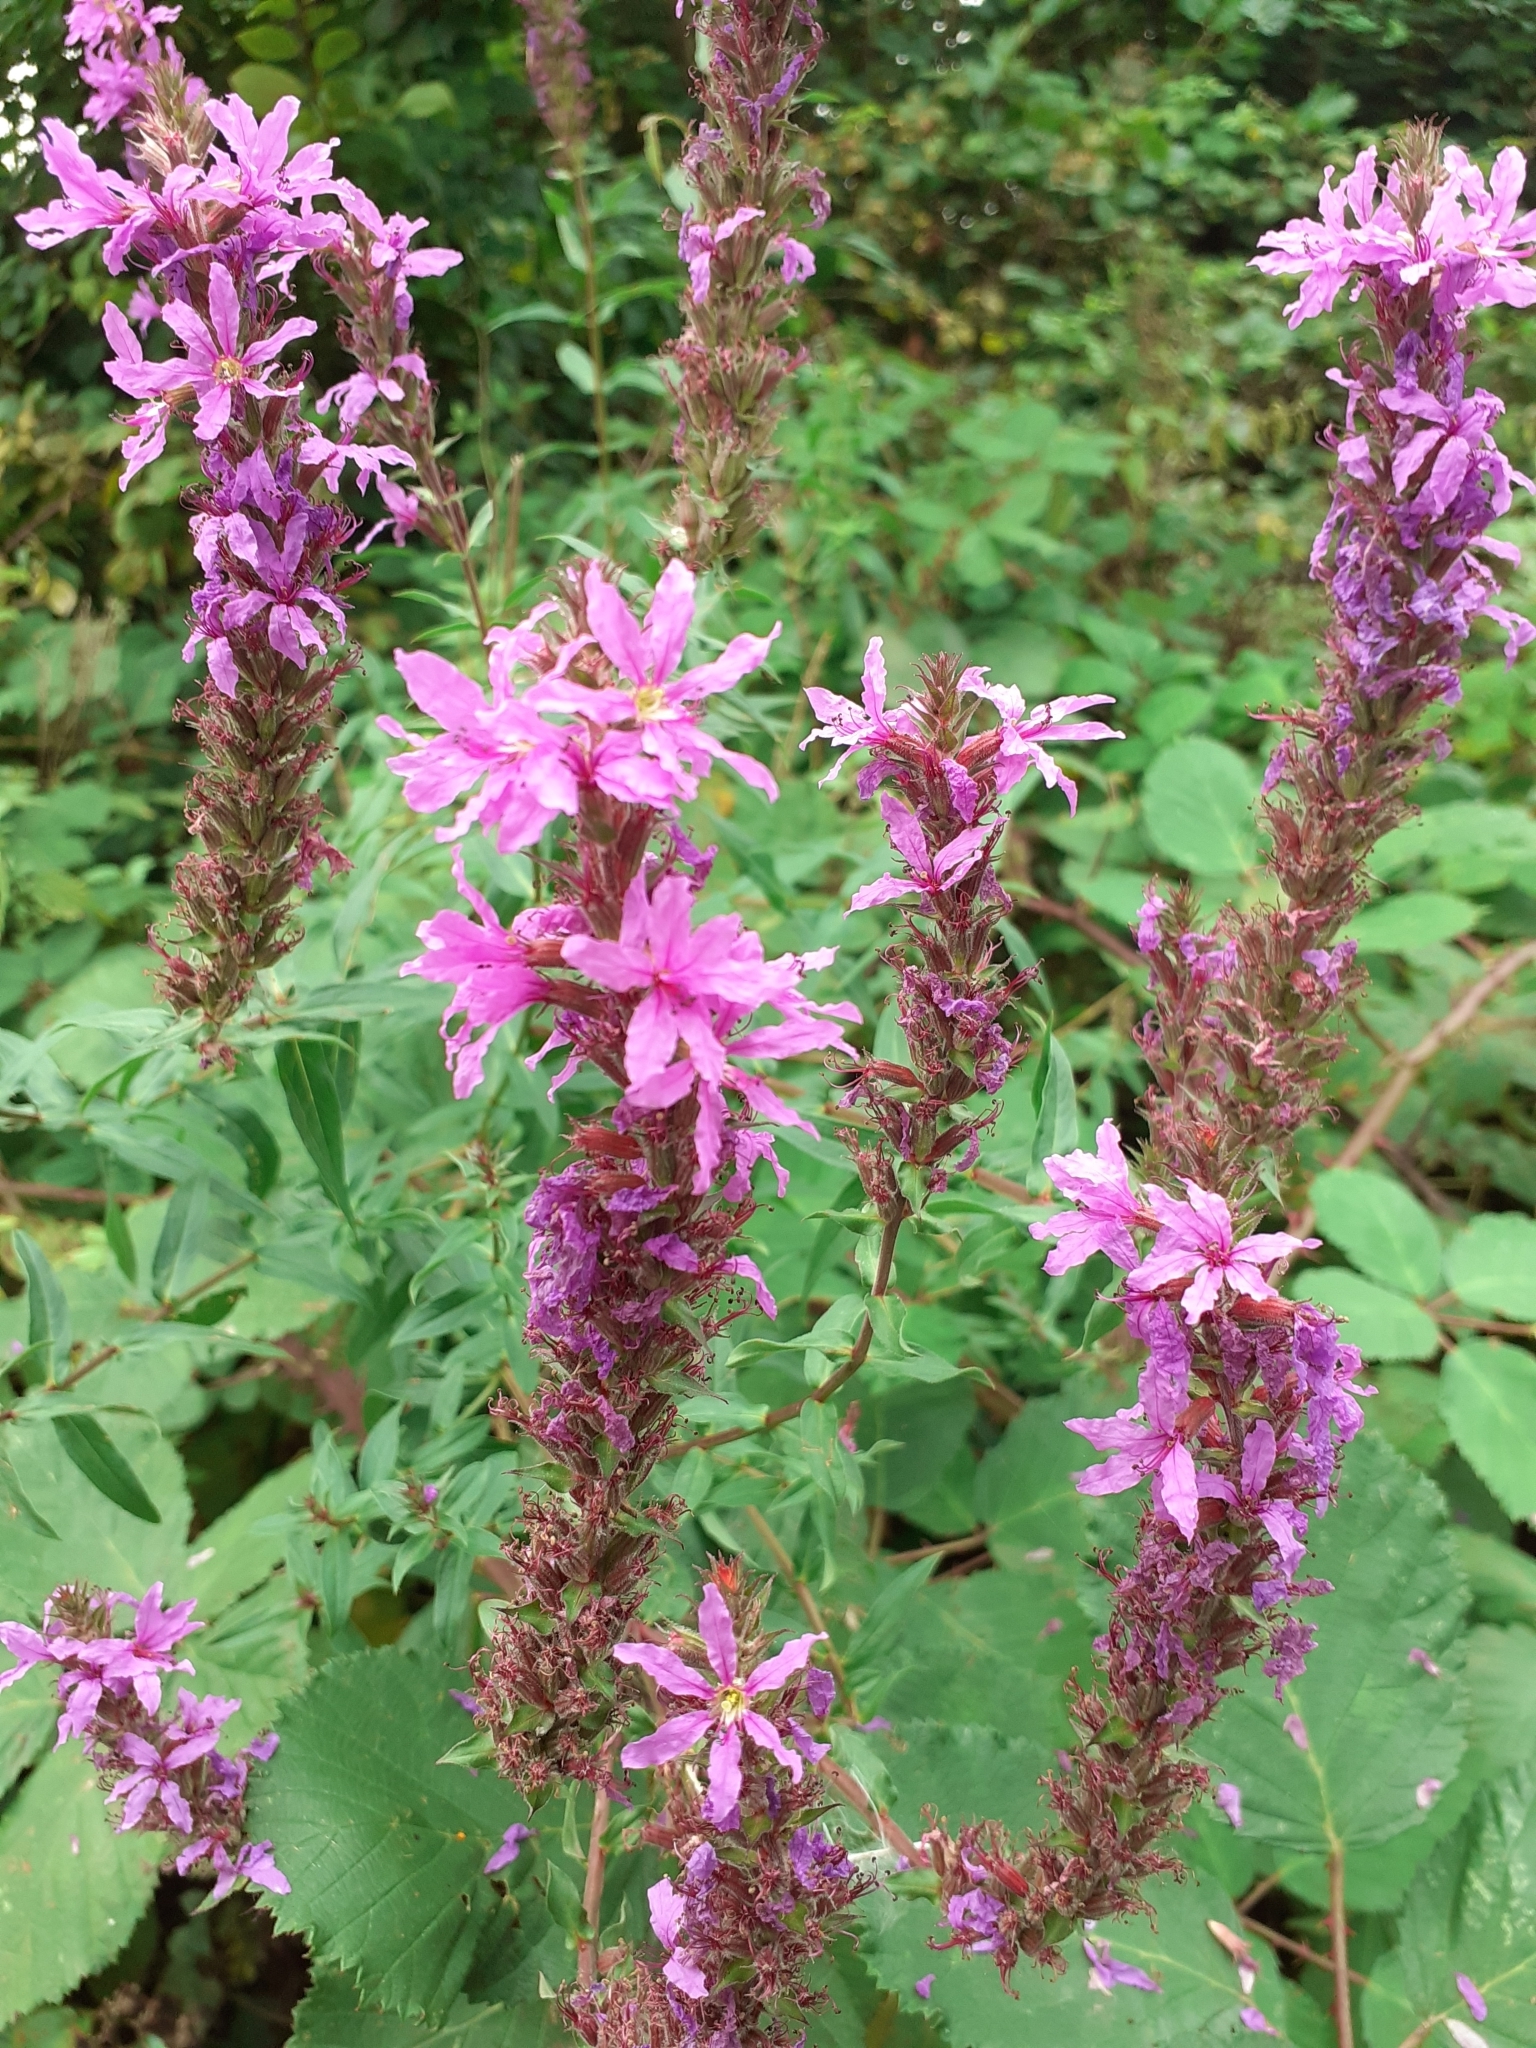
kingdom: Plantae
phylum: Tracheophyta
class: Magnoliopsida
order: Myrtales
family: Lythraceae
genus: Lythrum
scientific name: Lythrum salicaria
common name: Purple loosestrife
